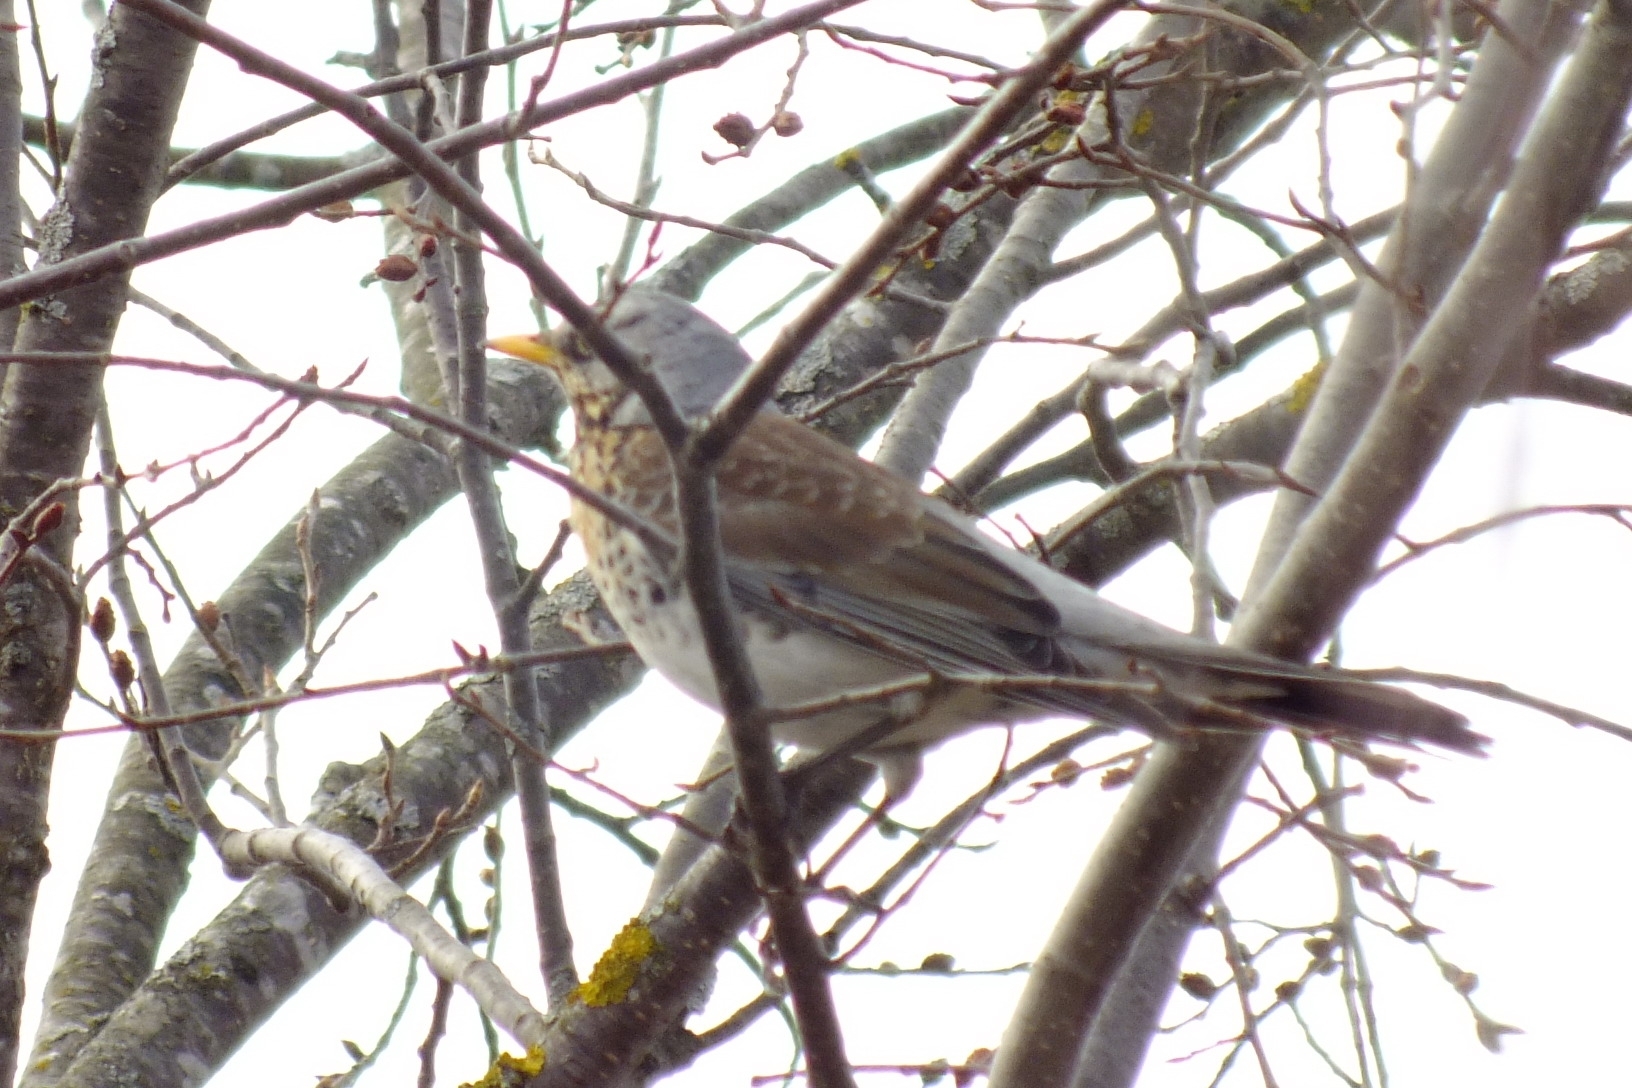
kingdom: Animalia
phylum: Chordata
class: Aves
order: Passeriformes
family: Turdidae
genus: Turdus
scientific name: Turdus pilaris
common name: Fieldfare
